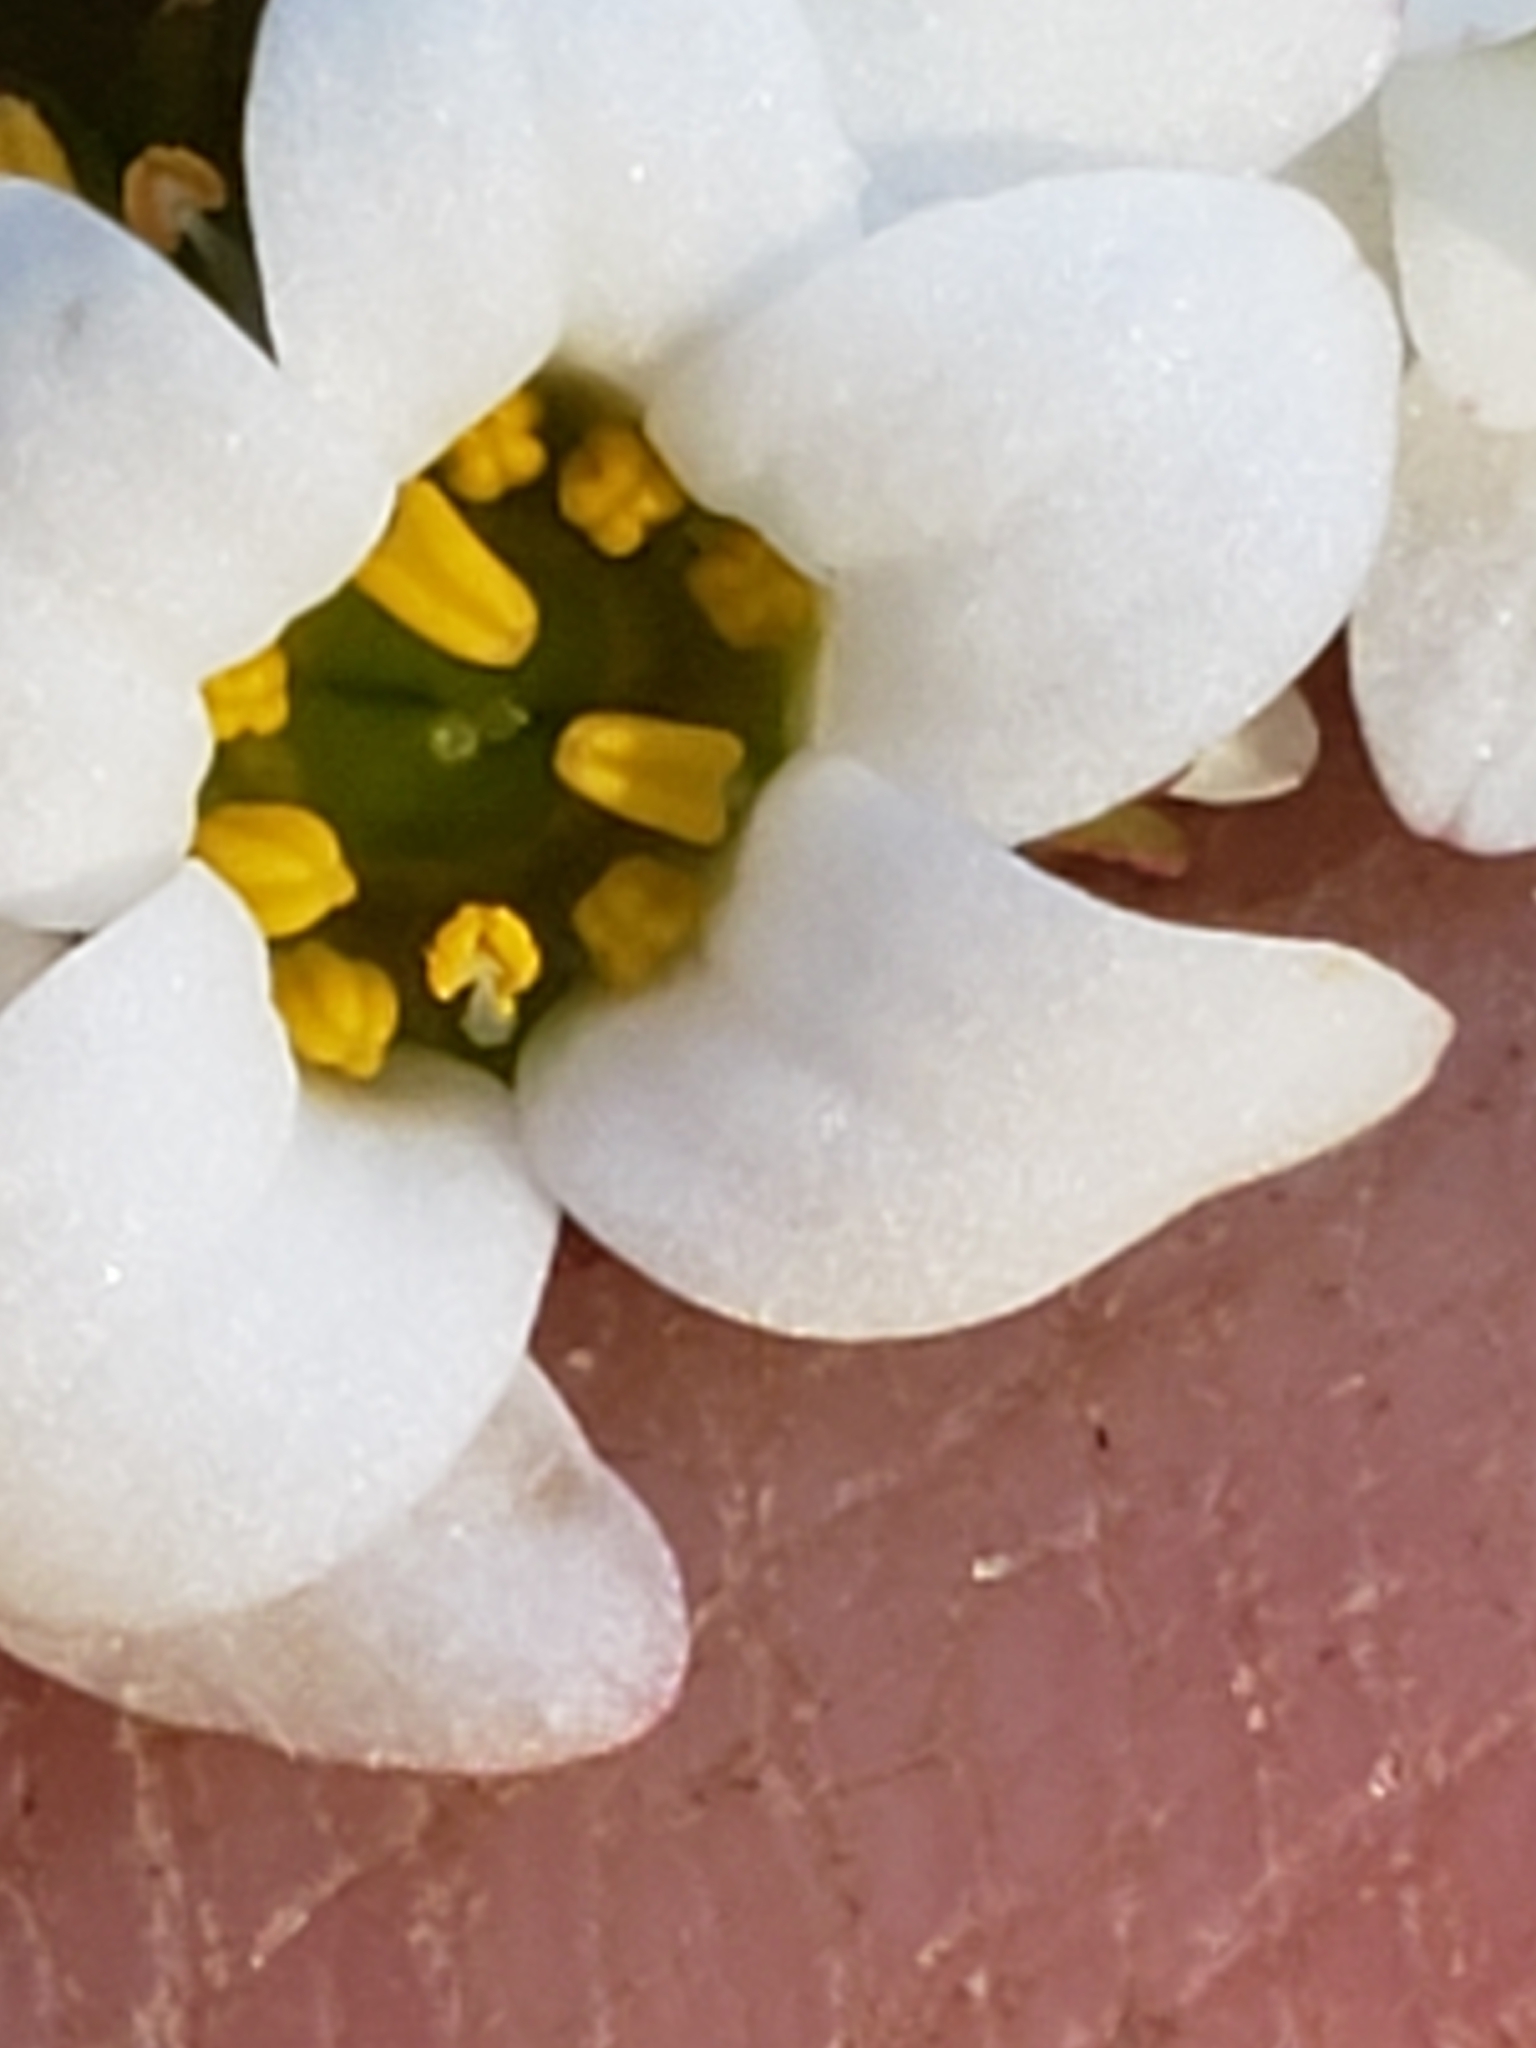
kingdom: Plantae
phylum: Tracheophyta
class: Magnoliopsida
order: Saxifragales
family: Saxifragaceae
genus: Micranthes
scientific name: Micranthes virginiensis
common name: Early saxifrage
